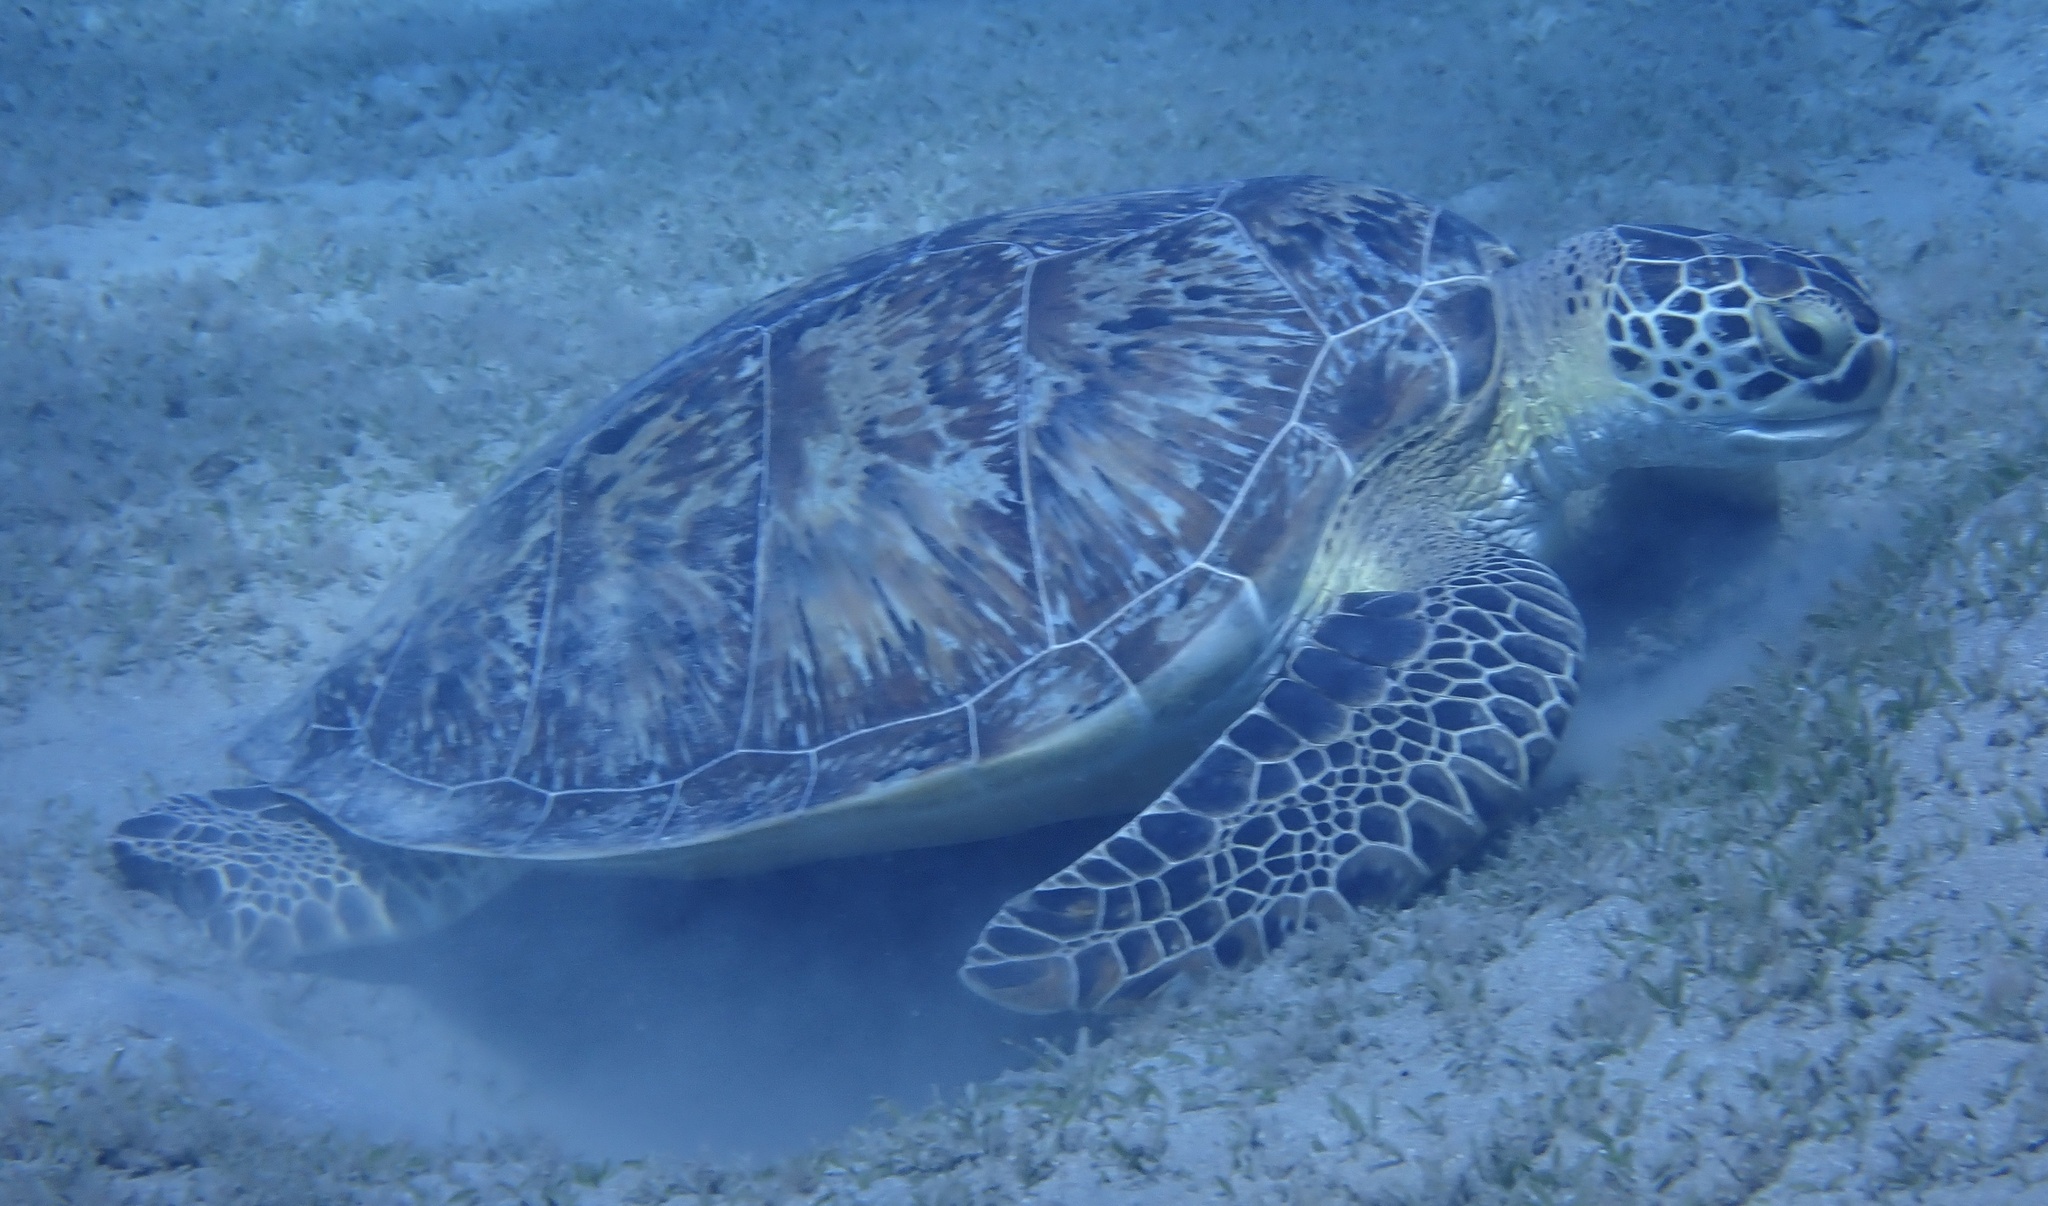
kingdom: Animalia
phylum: Chordata
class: Testudines
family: Cheloniidae
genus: Chelonia
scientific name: Chelonia mydas
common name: Green turtle
